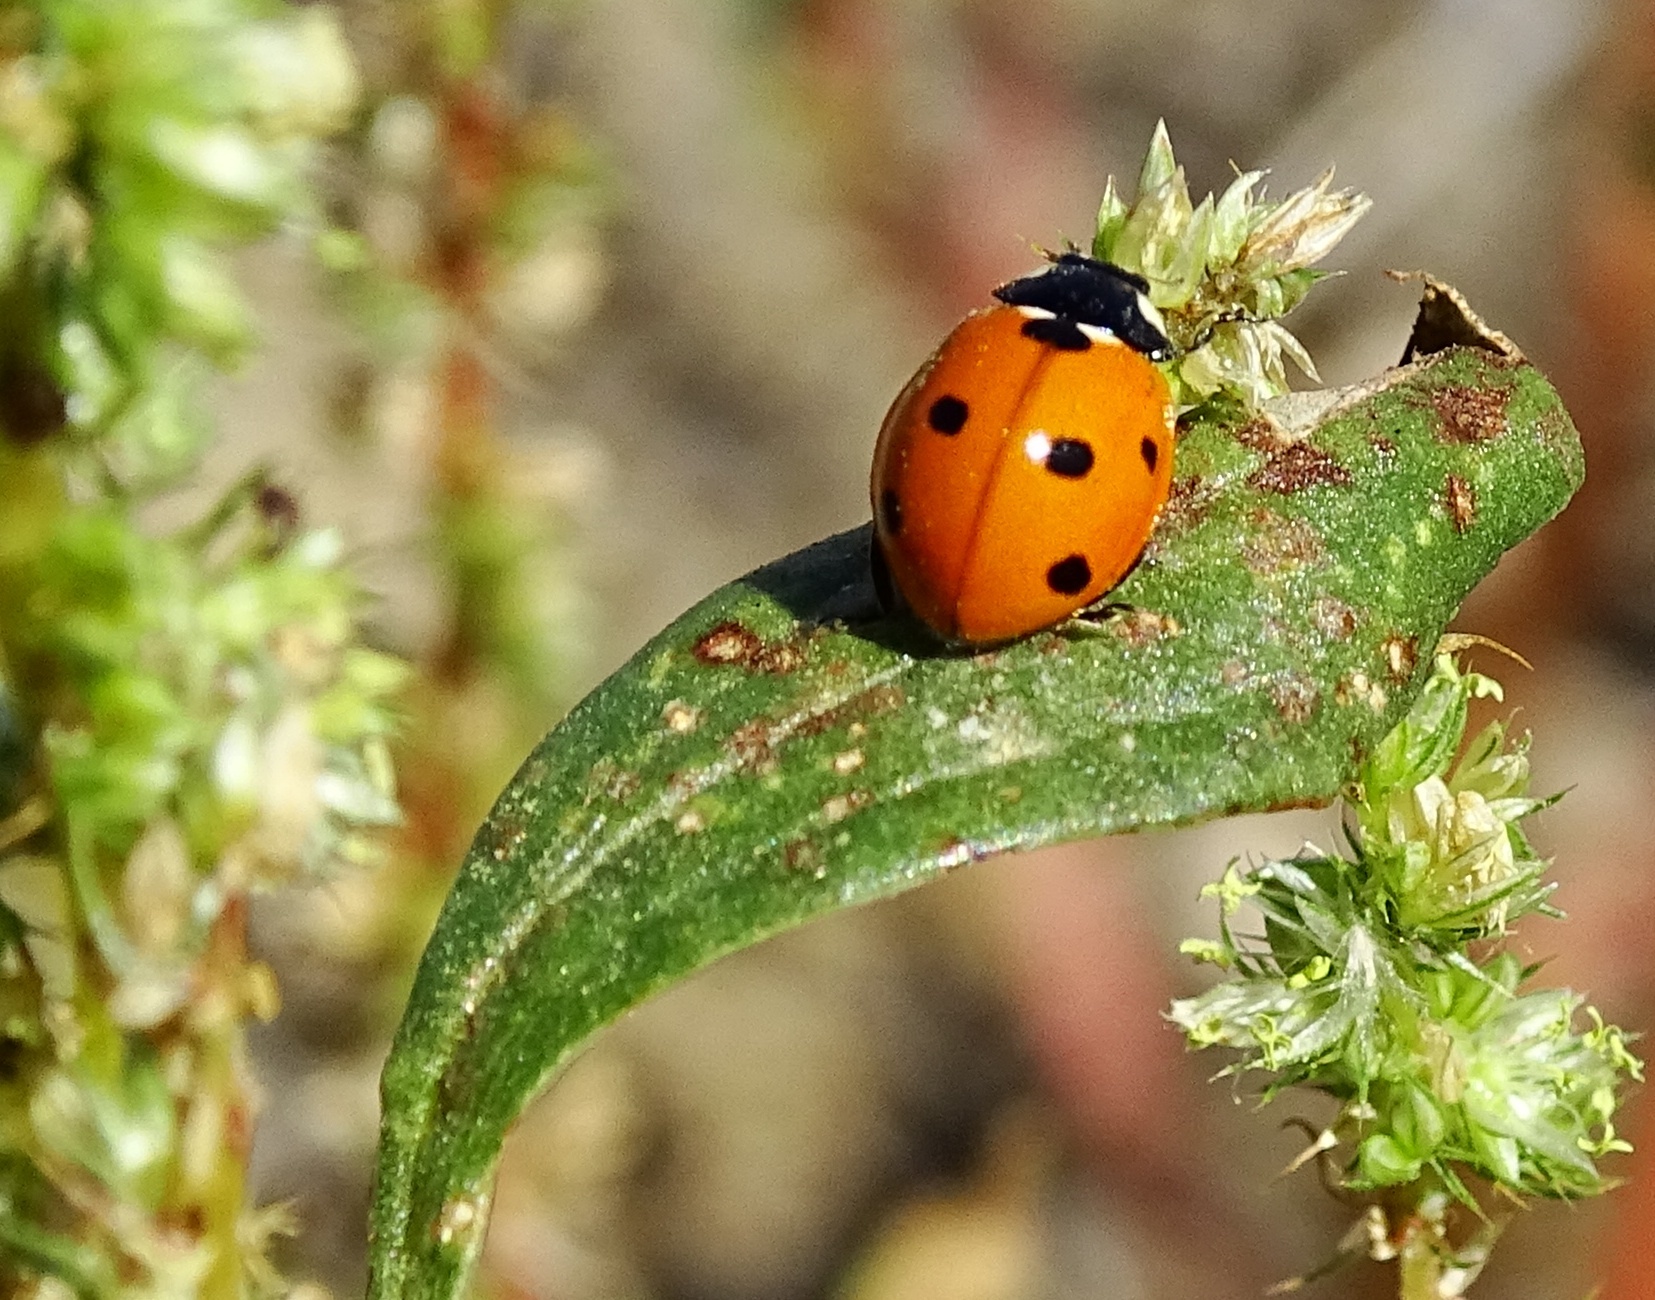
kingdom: Animalia
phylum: Arthropoda
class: Insecta
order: Coleoptera
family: Coccinellidae
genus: Coccinella
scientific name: Coccinella septempunctata
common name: Sevenspotted lady beetle
